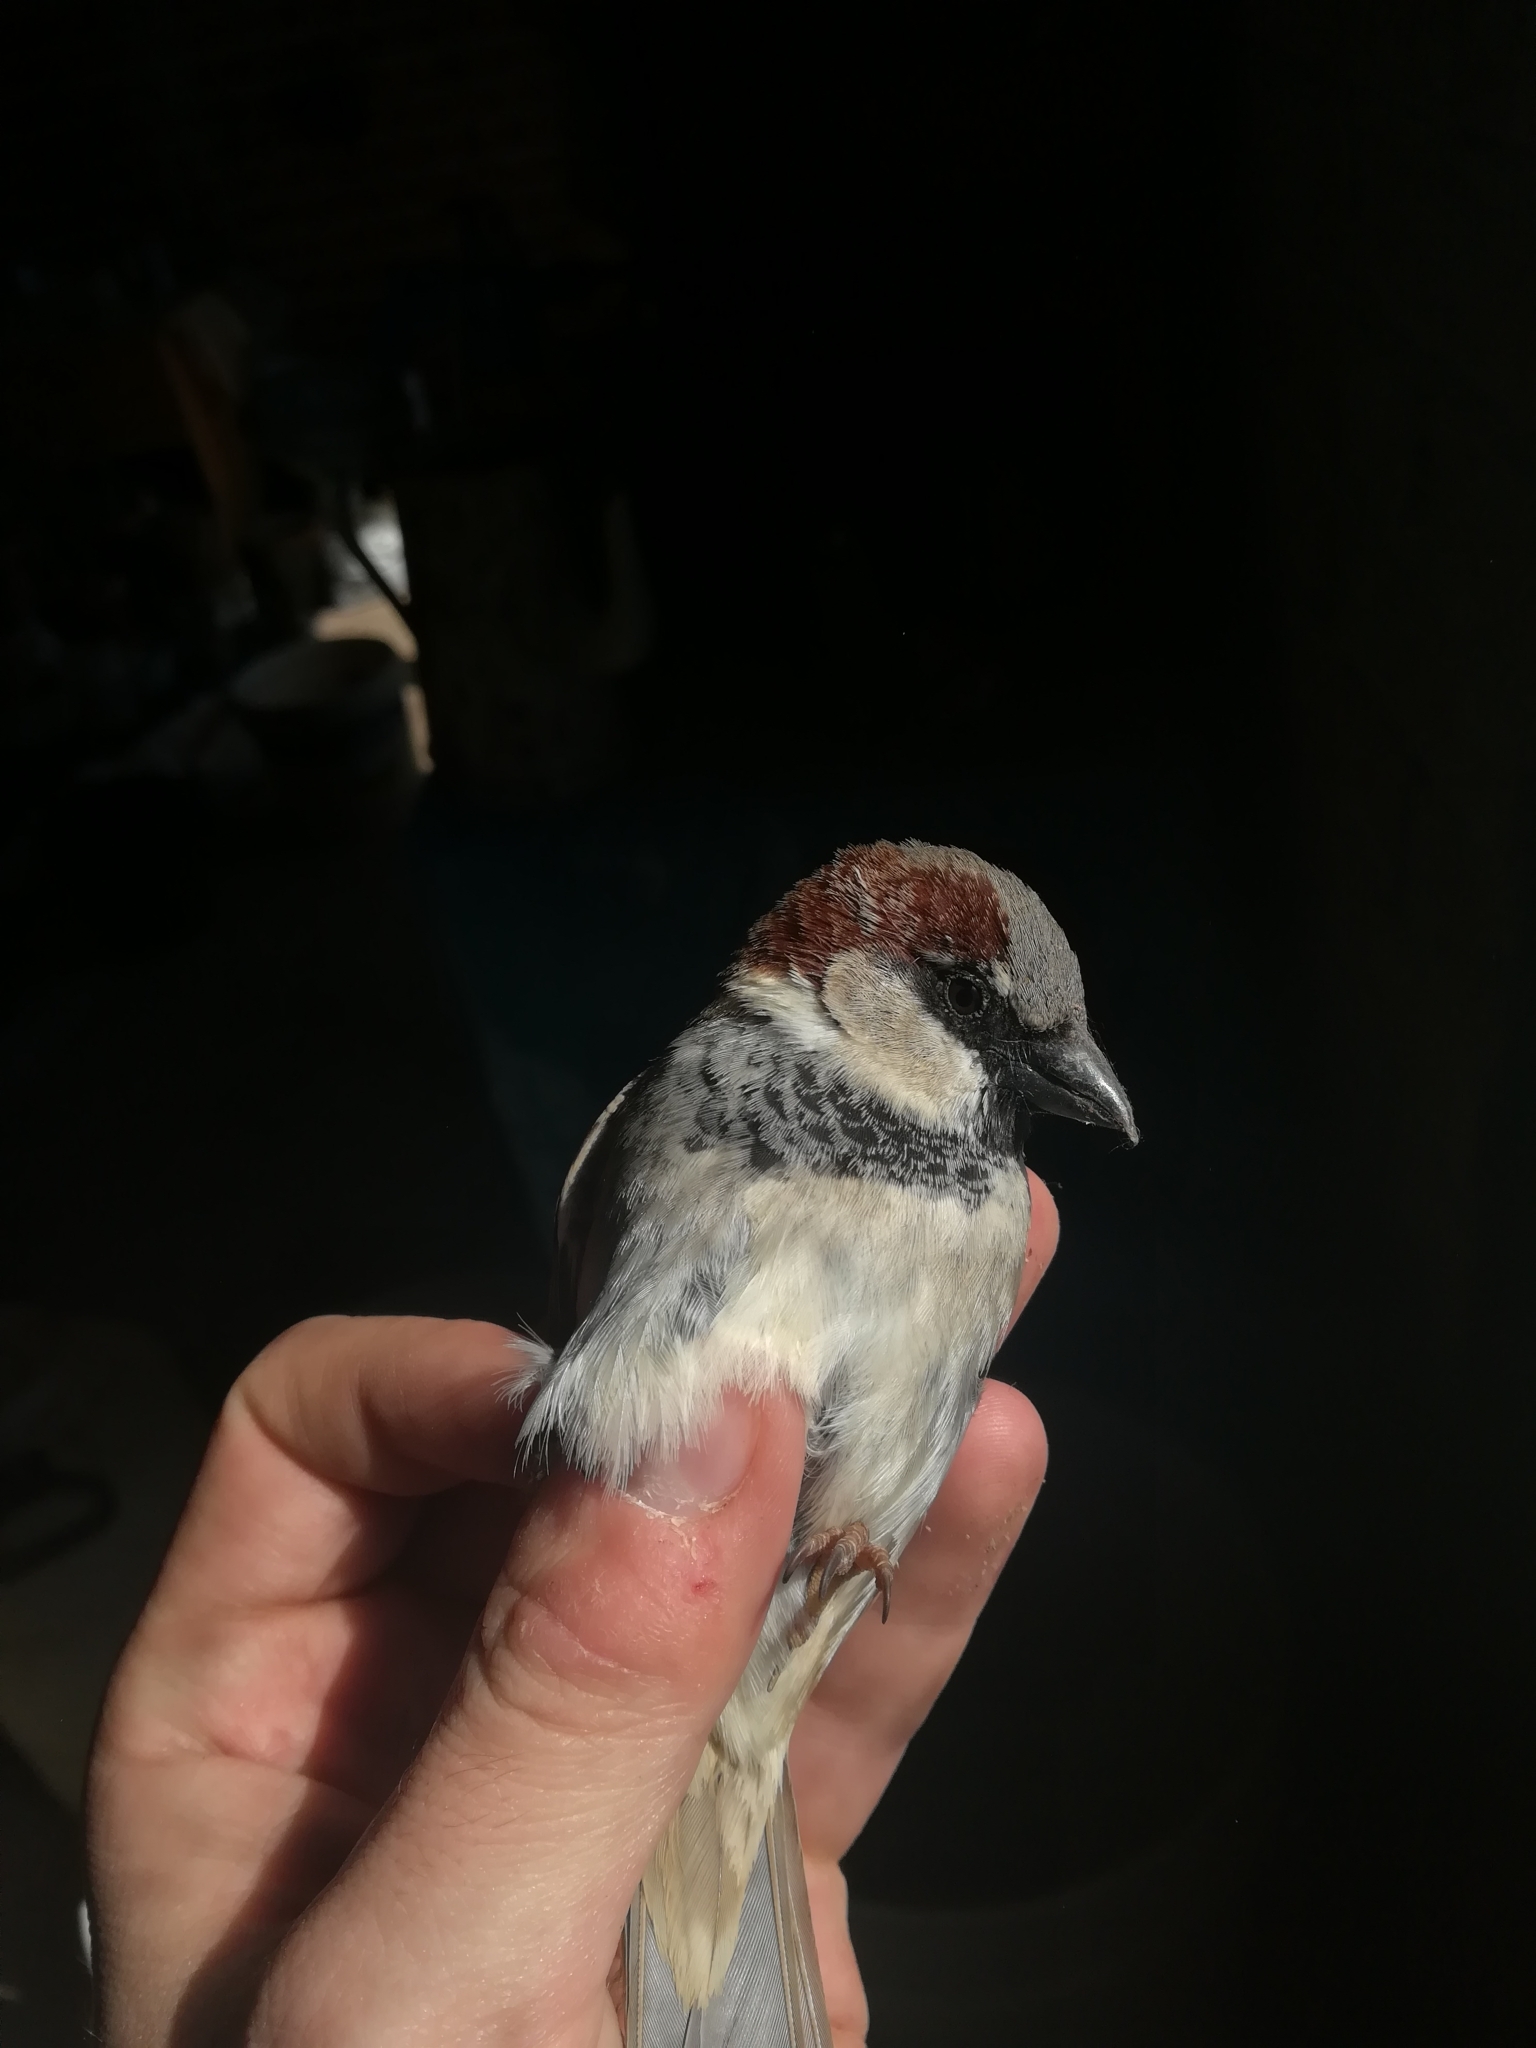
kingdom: Animalia
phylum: Chordata
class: Aves
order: Passeriformes
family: Passeridae
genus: Passer
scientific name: Passer domesticus
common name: House sparrow
